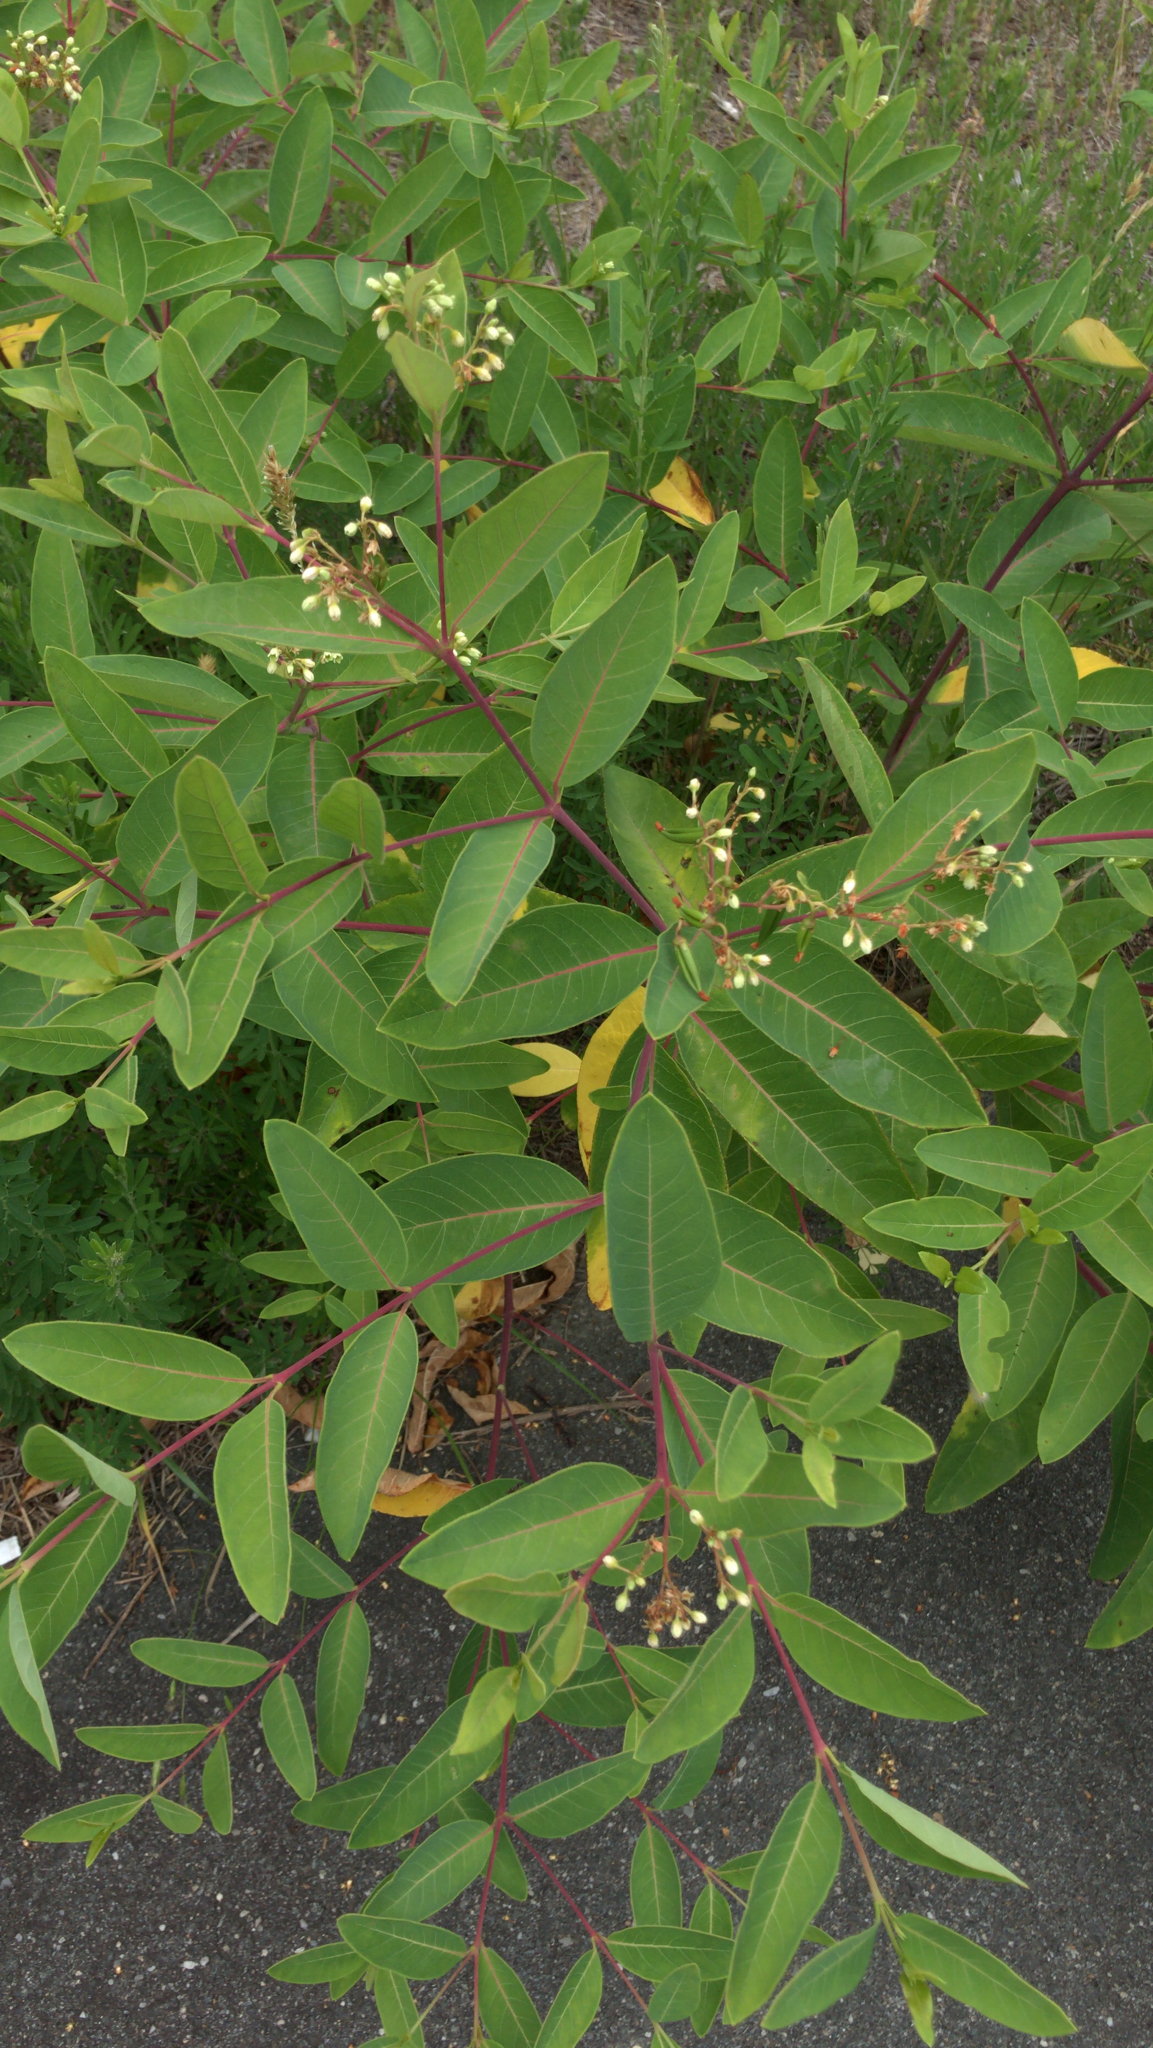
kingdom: Plantae
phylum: Tracheophyta
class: Magnoliopsida
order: Gentianales
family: Apocynaceae
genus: Apocynum
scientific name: Apocynum cannabinum
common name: Hemp dogbane
